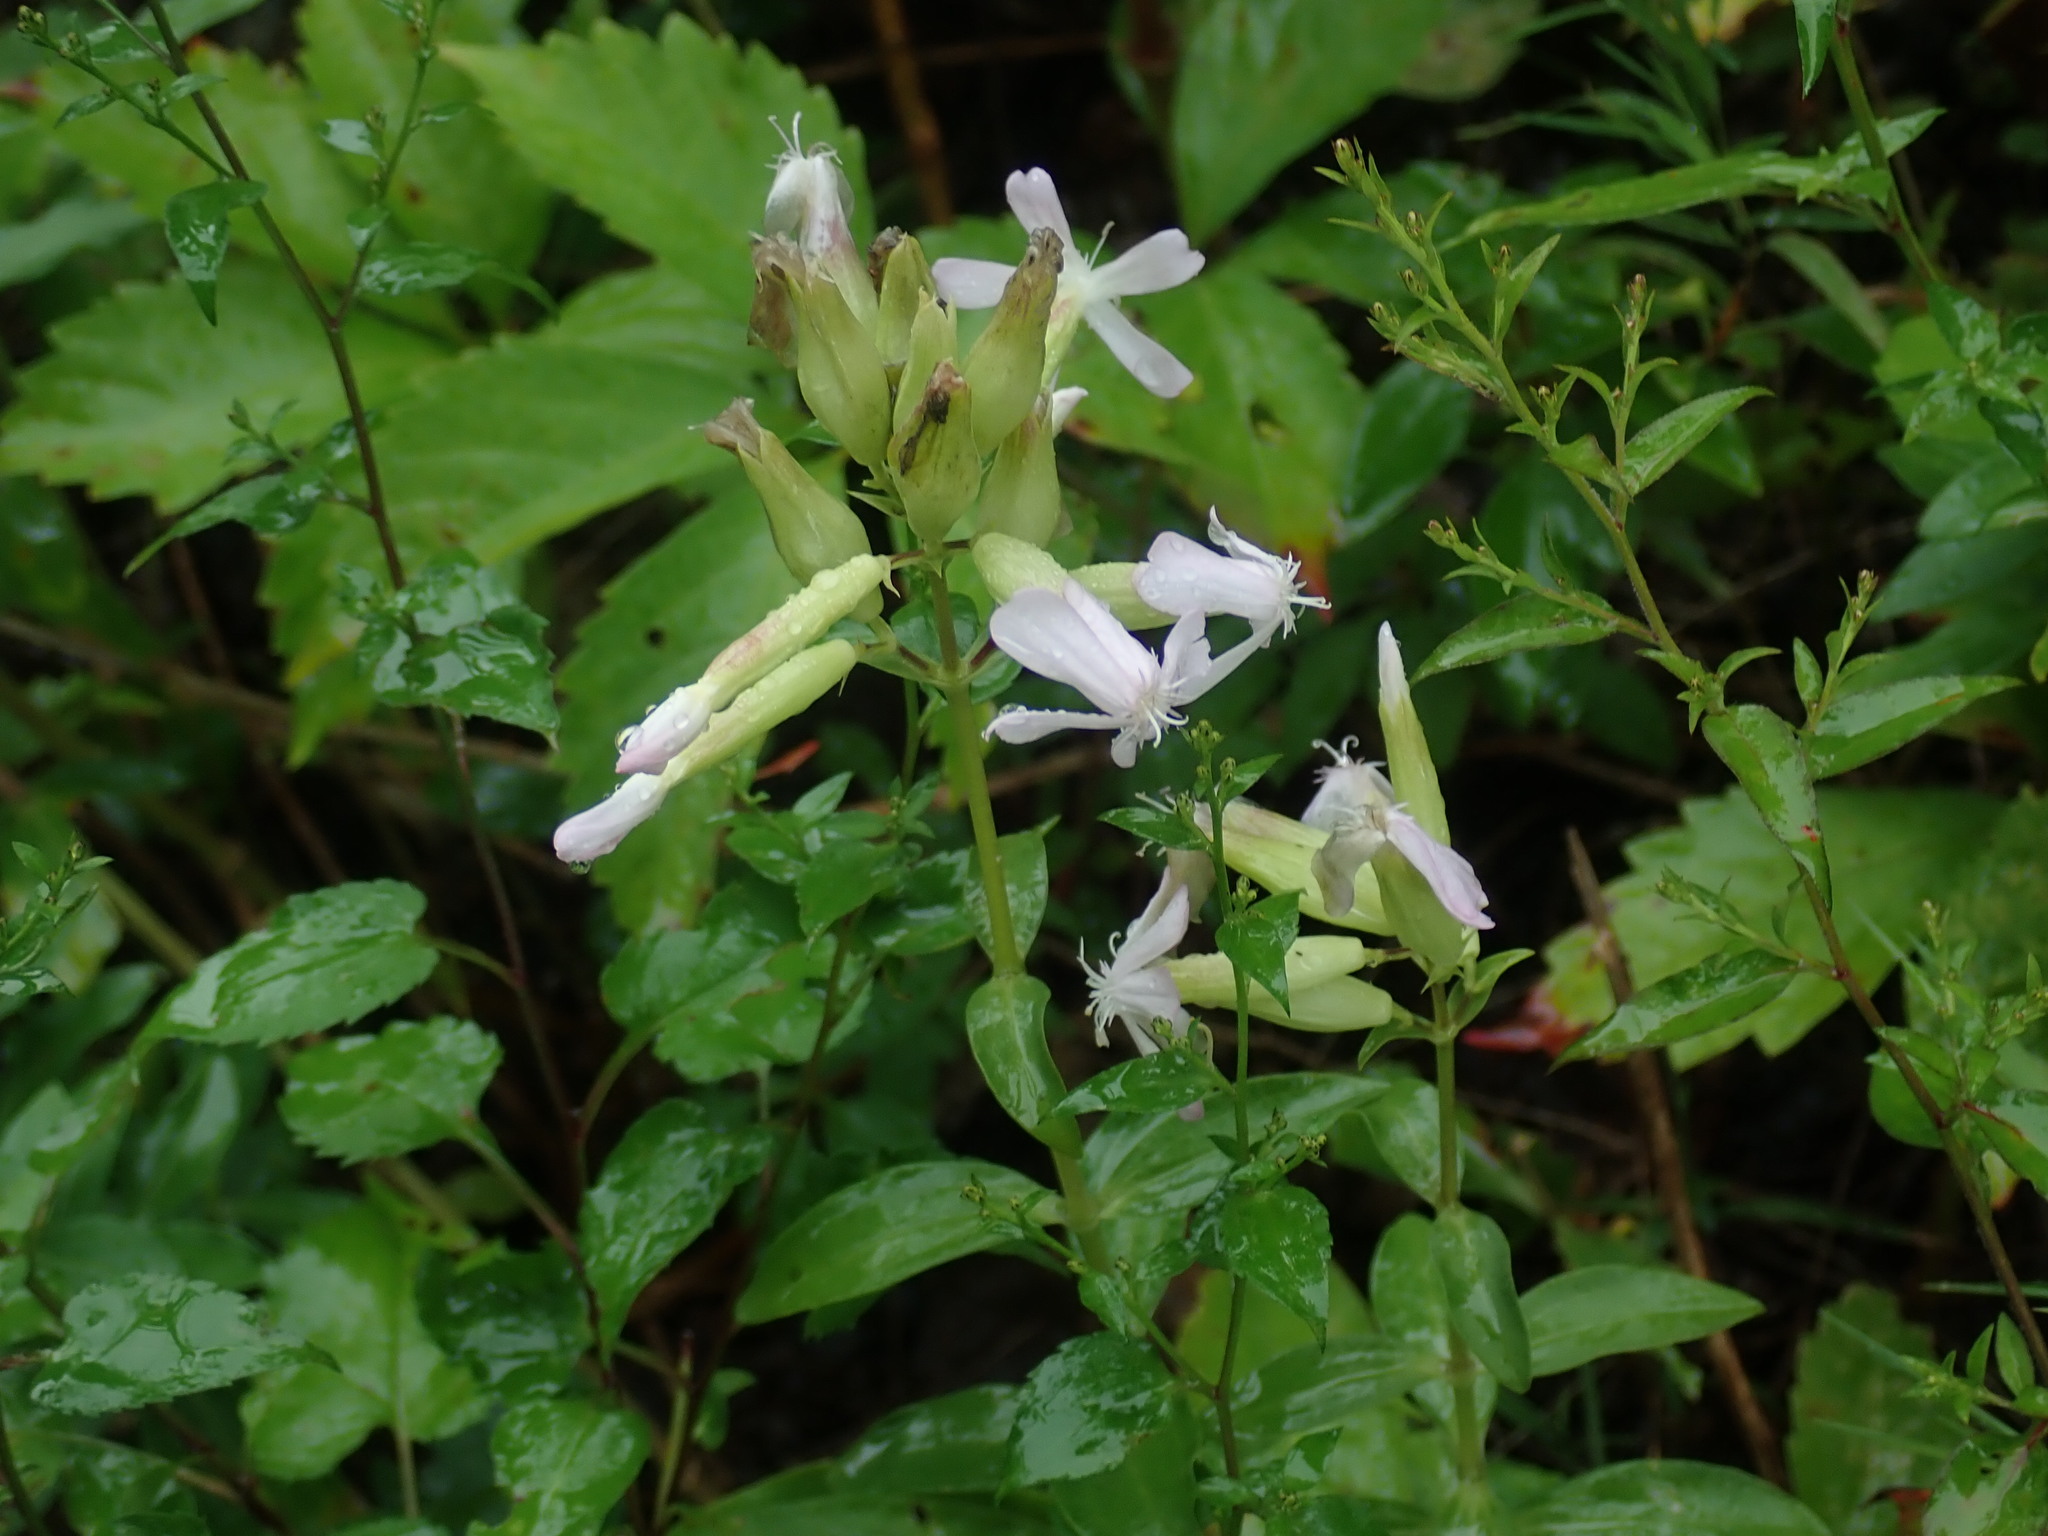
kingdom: Plantae
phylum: Tracheophyta
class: Magnoliopsida
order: Caryophyllales
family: Caryophyllaceae
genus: Saponaria
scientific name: Saponaria officinalis
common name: Soapwort
